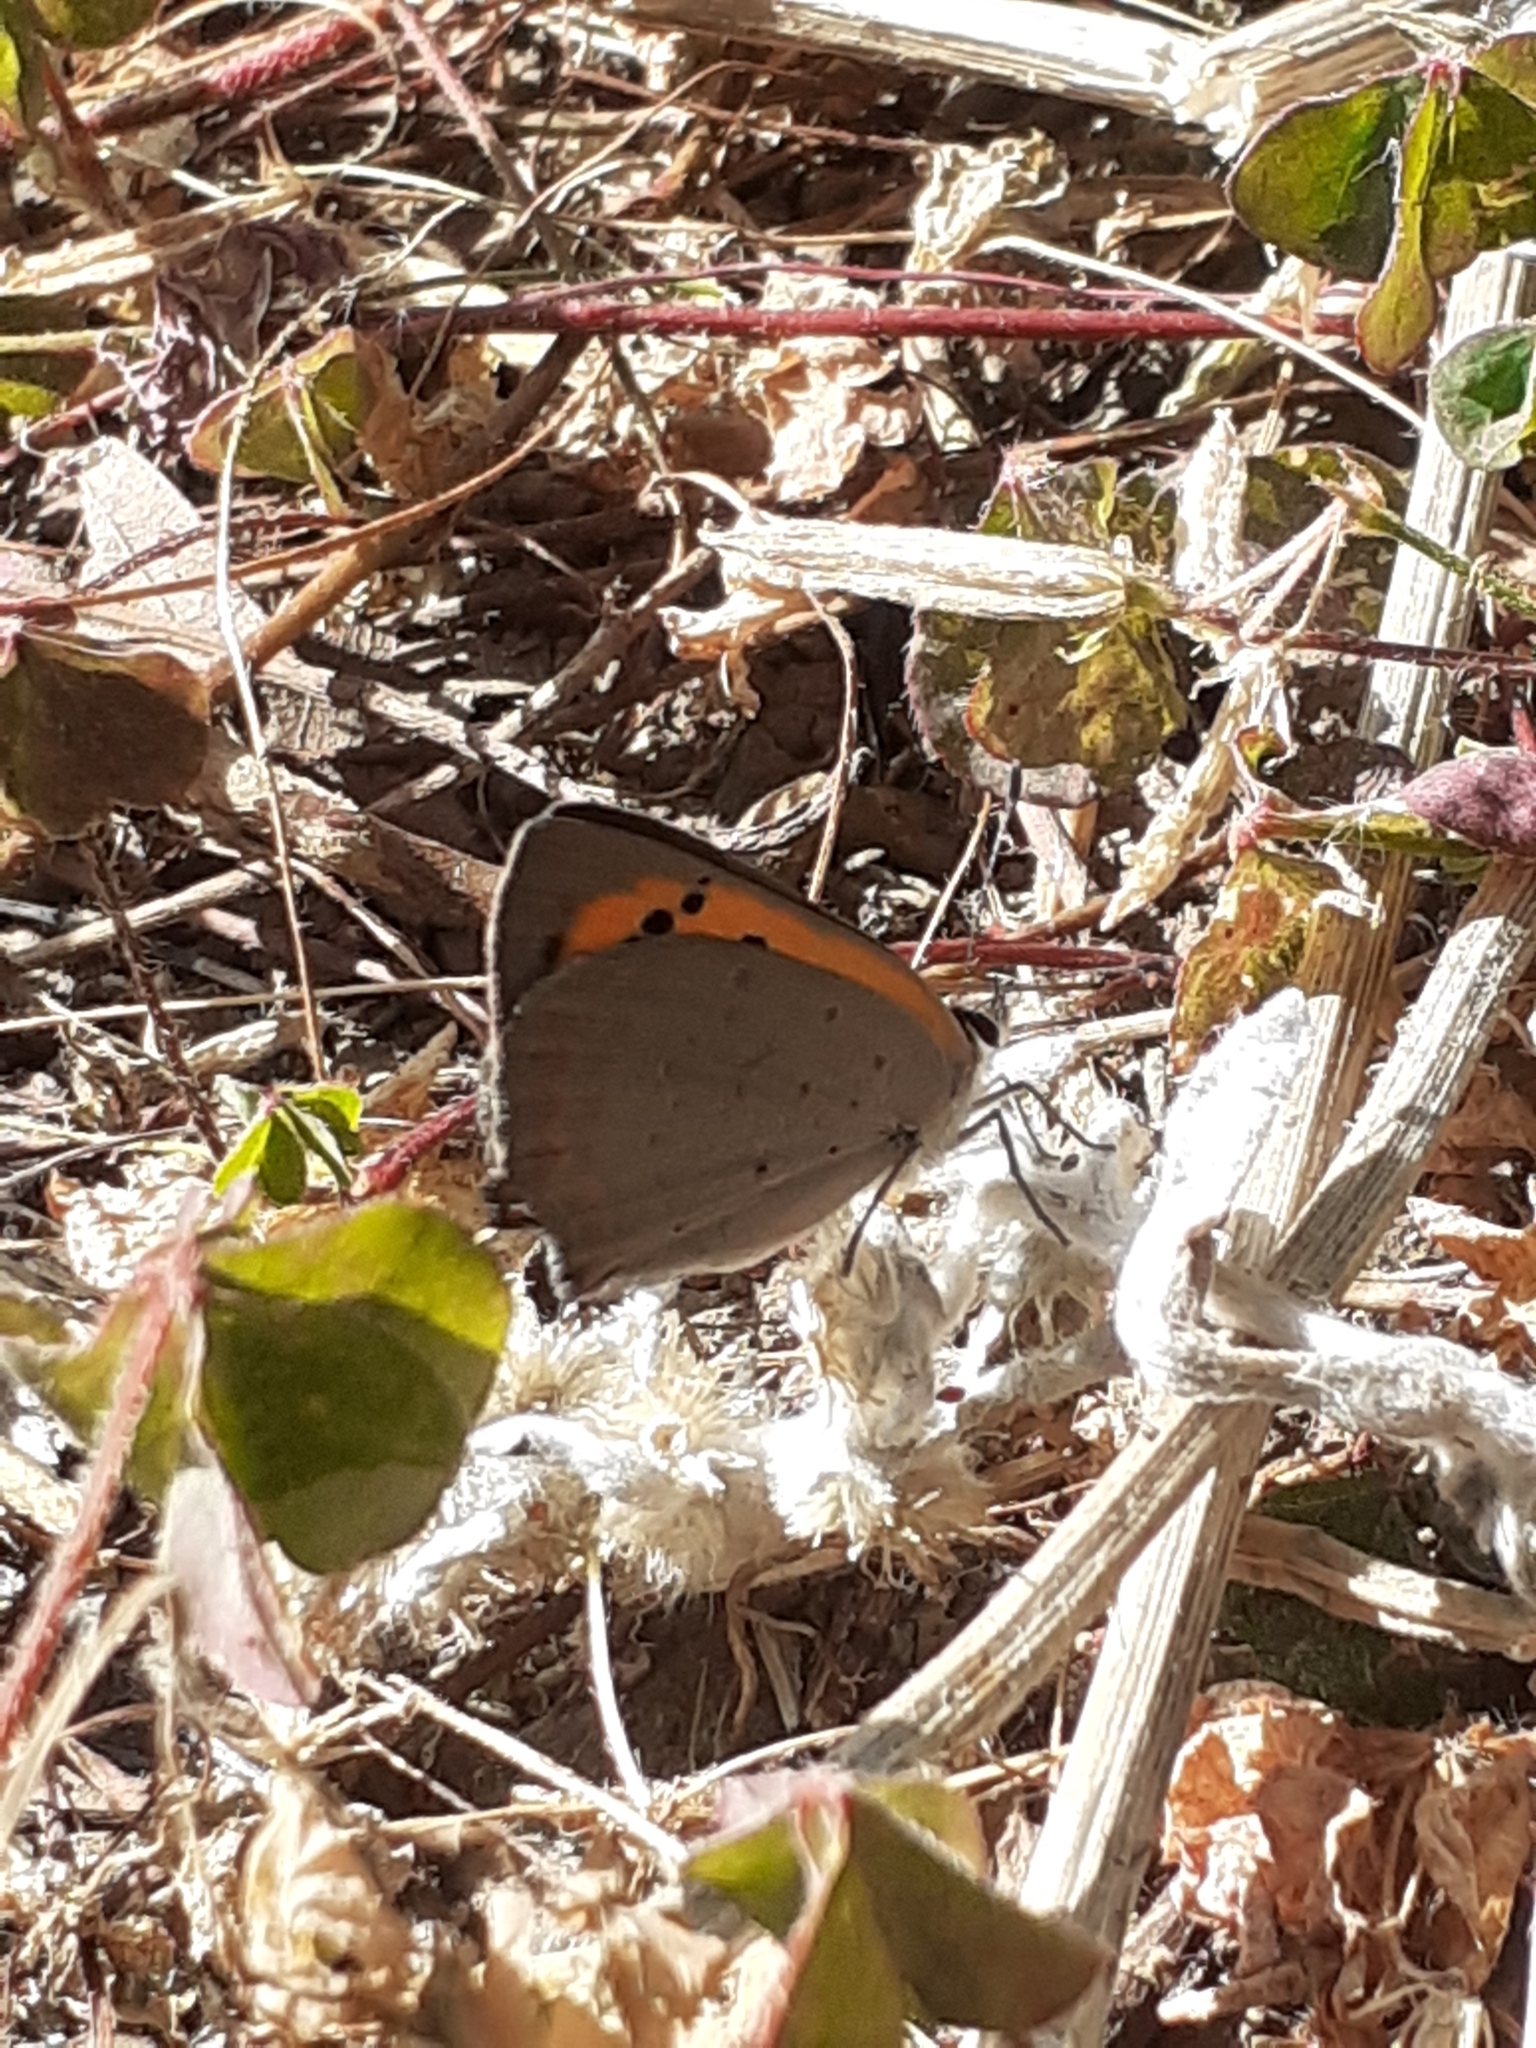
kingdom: Animalia
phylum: Arthropoda
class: Insecta
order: Lepidoptera
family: Lycaenidae
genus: Lycaena
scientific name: Lycaena phlaeas
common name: Small copper
